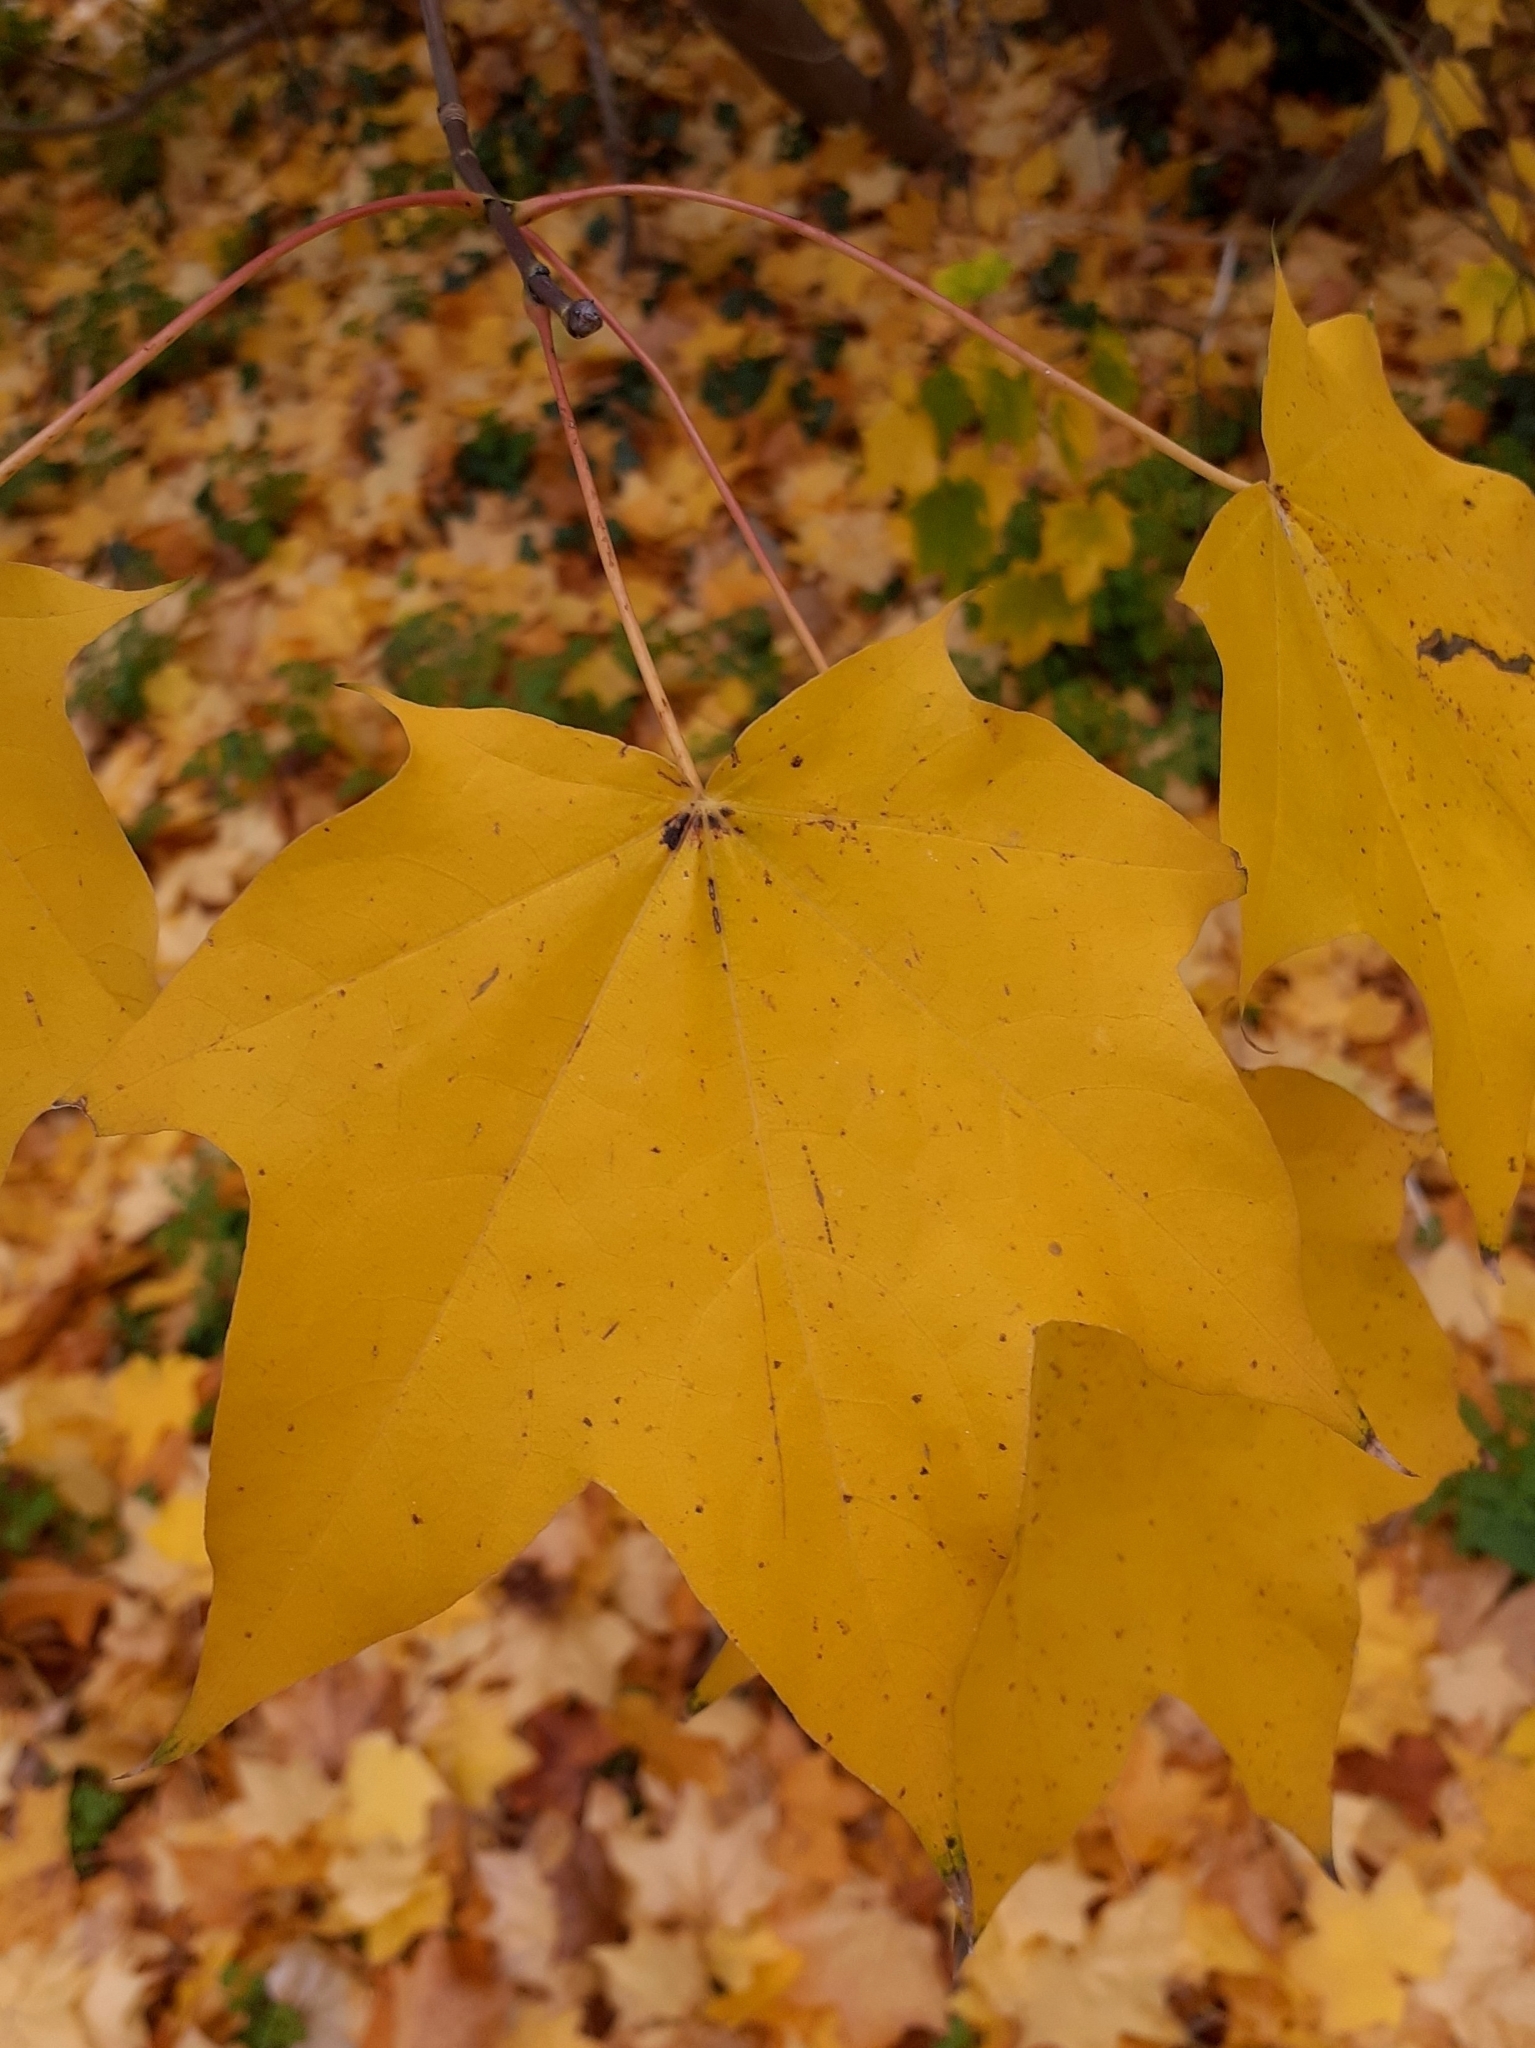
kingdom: Plantae
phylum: Tracheophyta
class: Magnoliopsida
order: Sapindales
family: Sapindaceae
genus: Acer
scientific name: Acer cappadocicum
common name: Cappadocian maple
